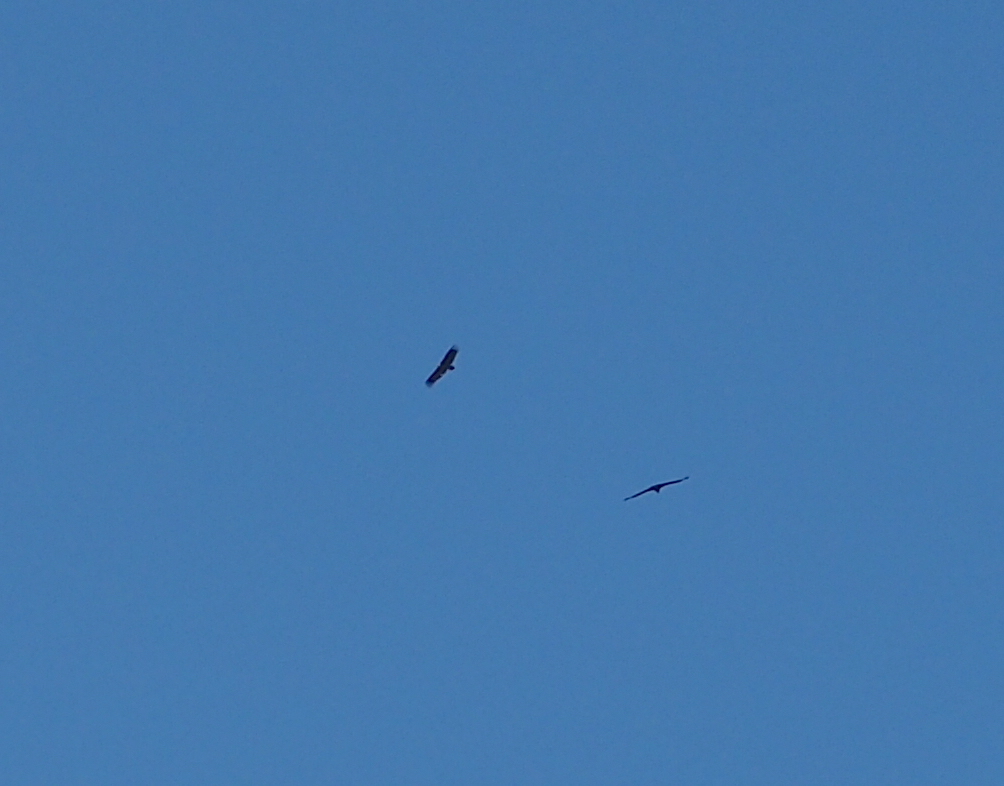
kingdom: Animalia
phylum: Chordata
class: Aves
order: Accipitriformes
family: Accipitridae
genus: Aegypius
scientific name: Aegypius monachus
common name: Cinereous vulture
